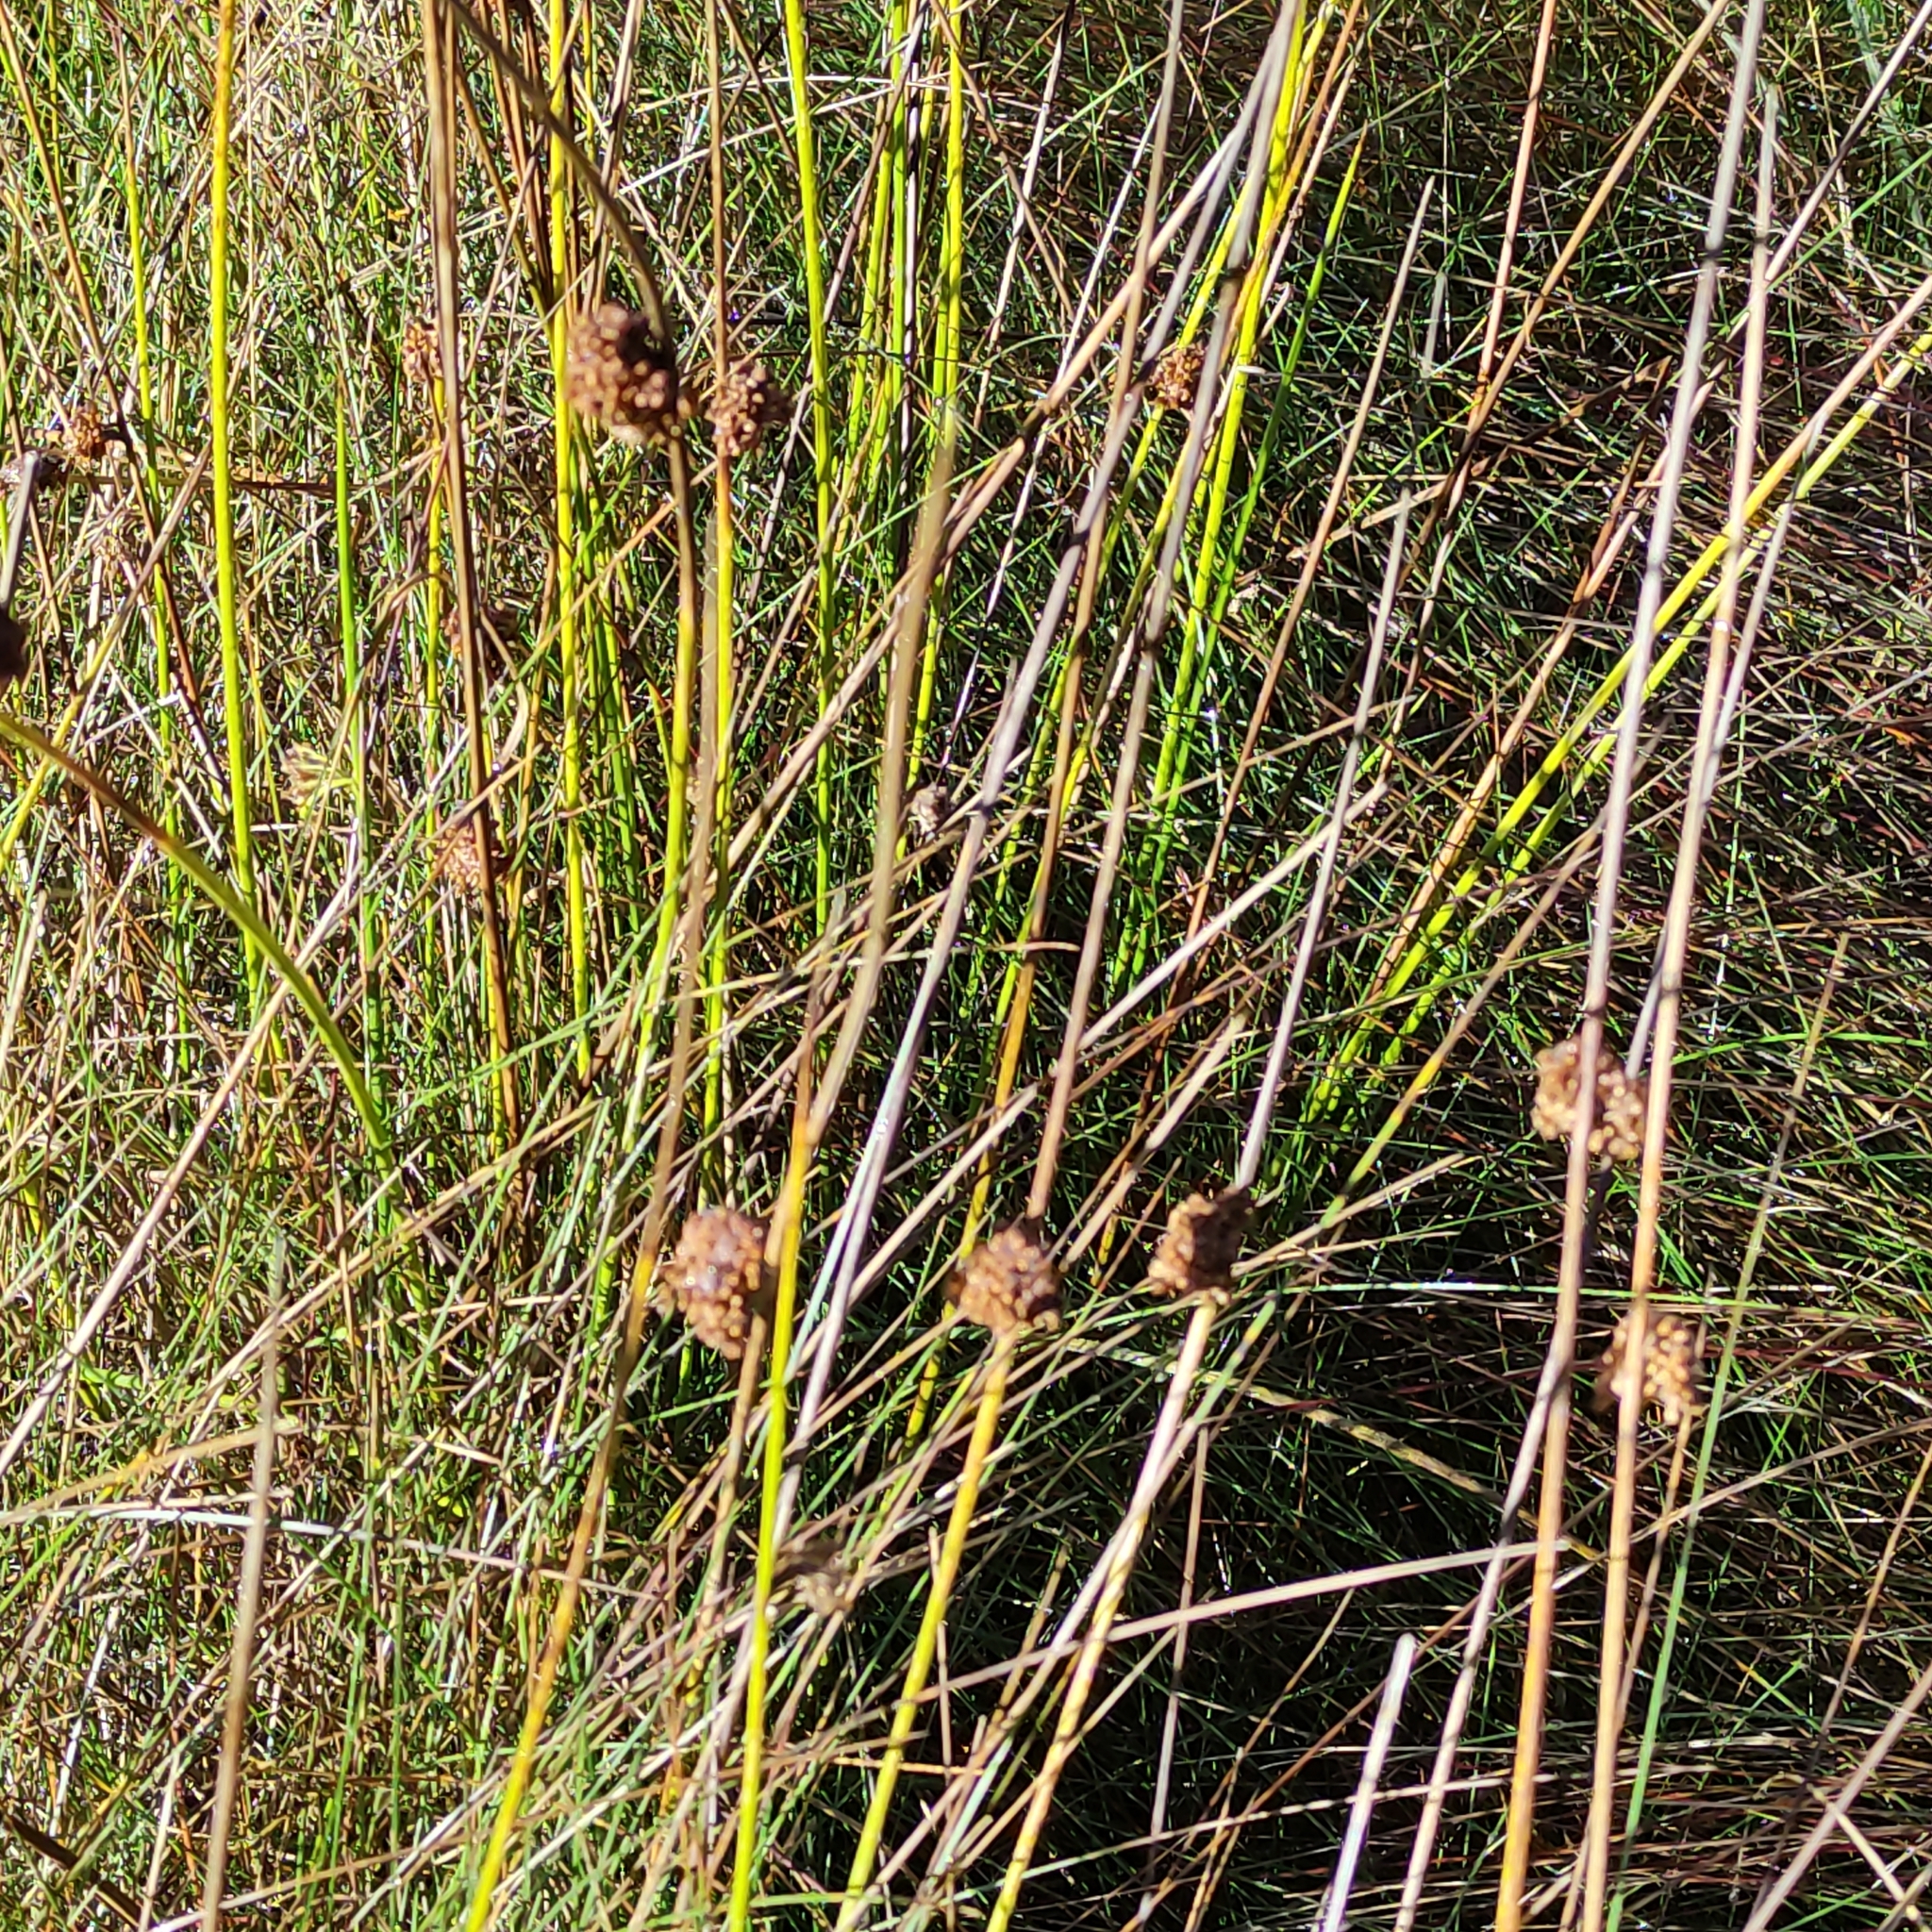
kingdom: Plantae
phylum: Tracheophyta
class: Liliopsida
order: Poales
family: Cyperaceae
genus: Ficinia
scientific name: Ficinia nodosa
